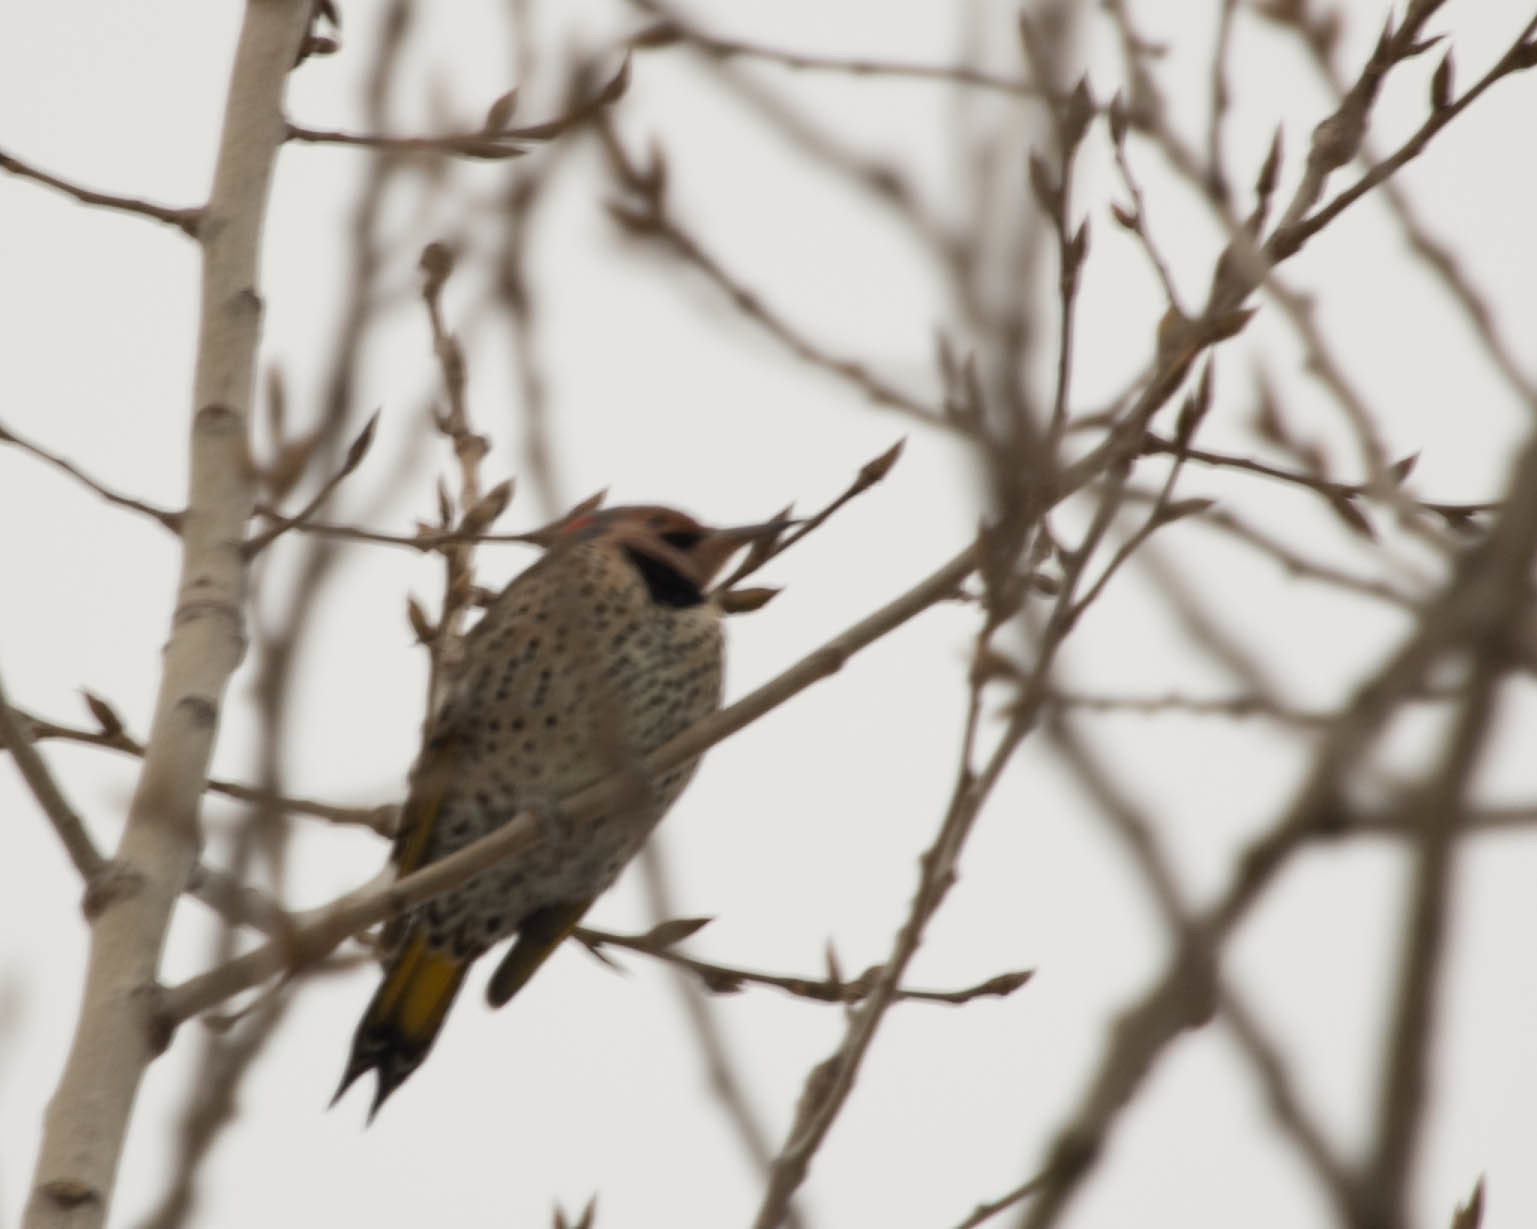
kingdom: Animalia
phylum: Chordata
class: Aves
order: Piciformes
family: Picidae
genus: Colaptes
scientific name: Colaptes auratus
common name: Northern flicker
